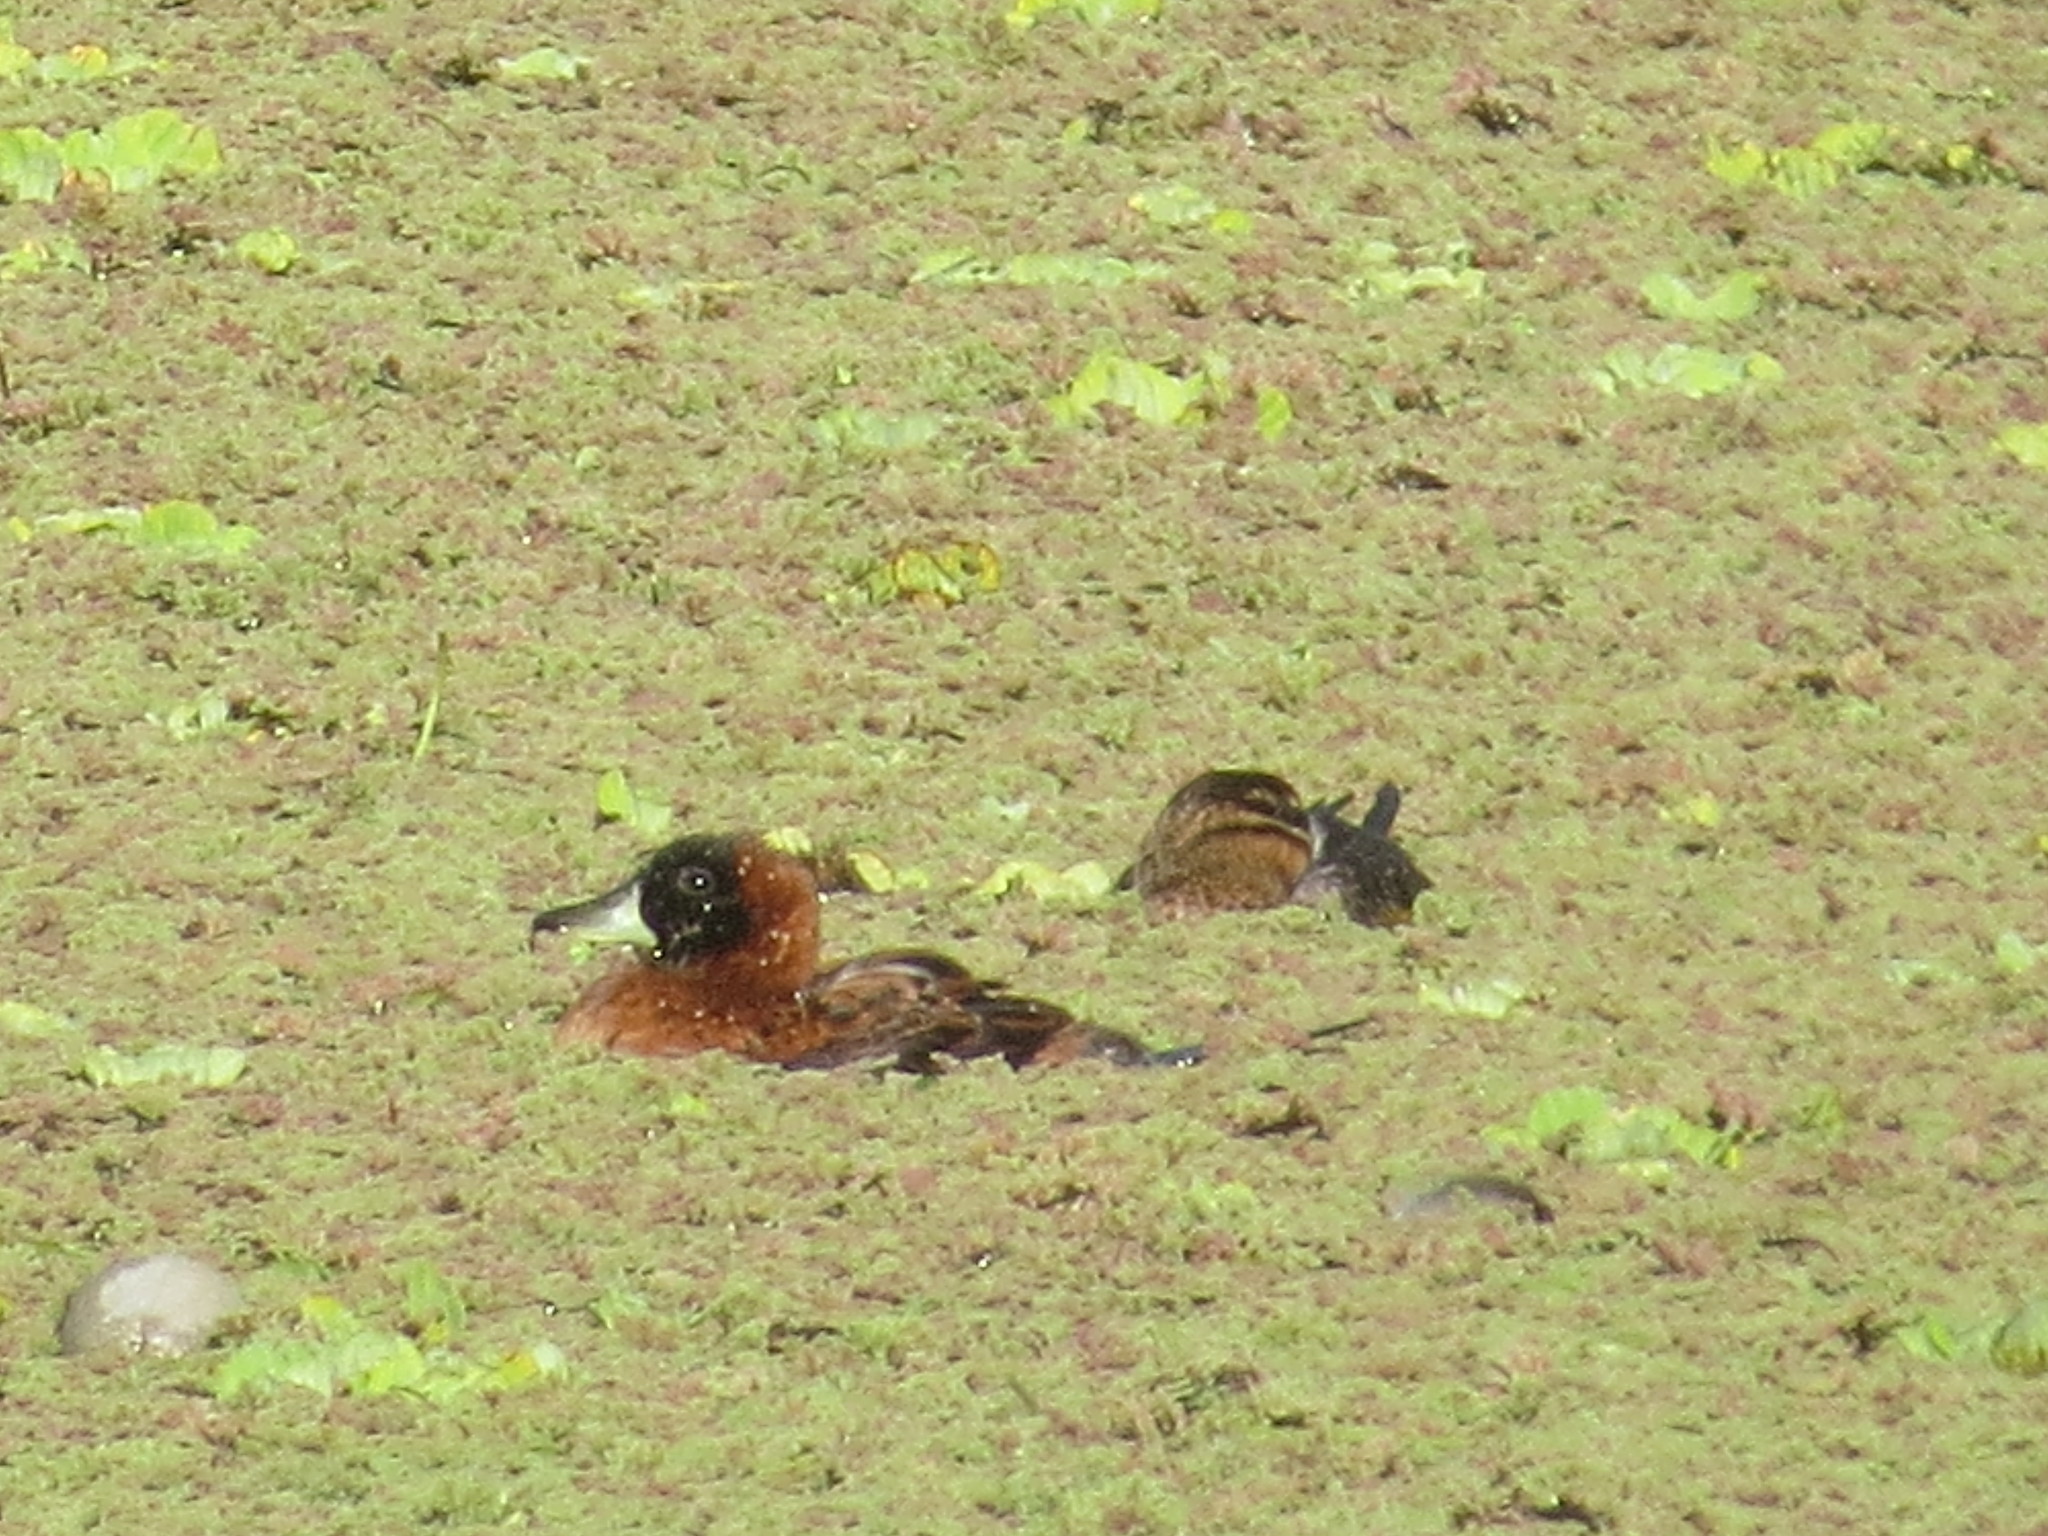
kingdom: Animalia
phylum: Chordata
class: Aves
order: Anseriformes
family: Anatidae
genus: Nomonyx
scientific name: Nomonyx dominicus
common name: Masked duck
